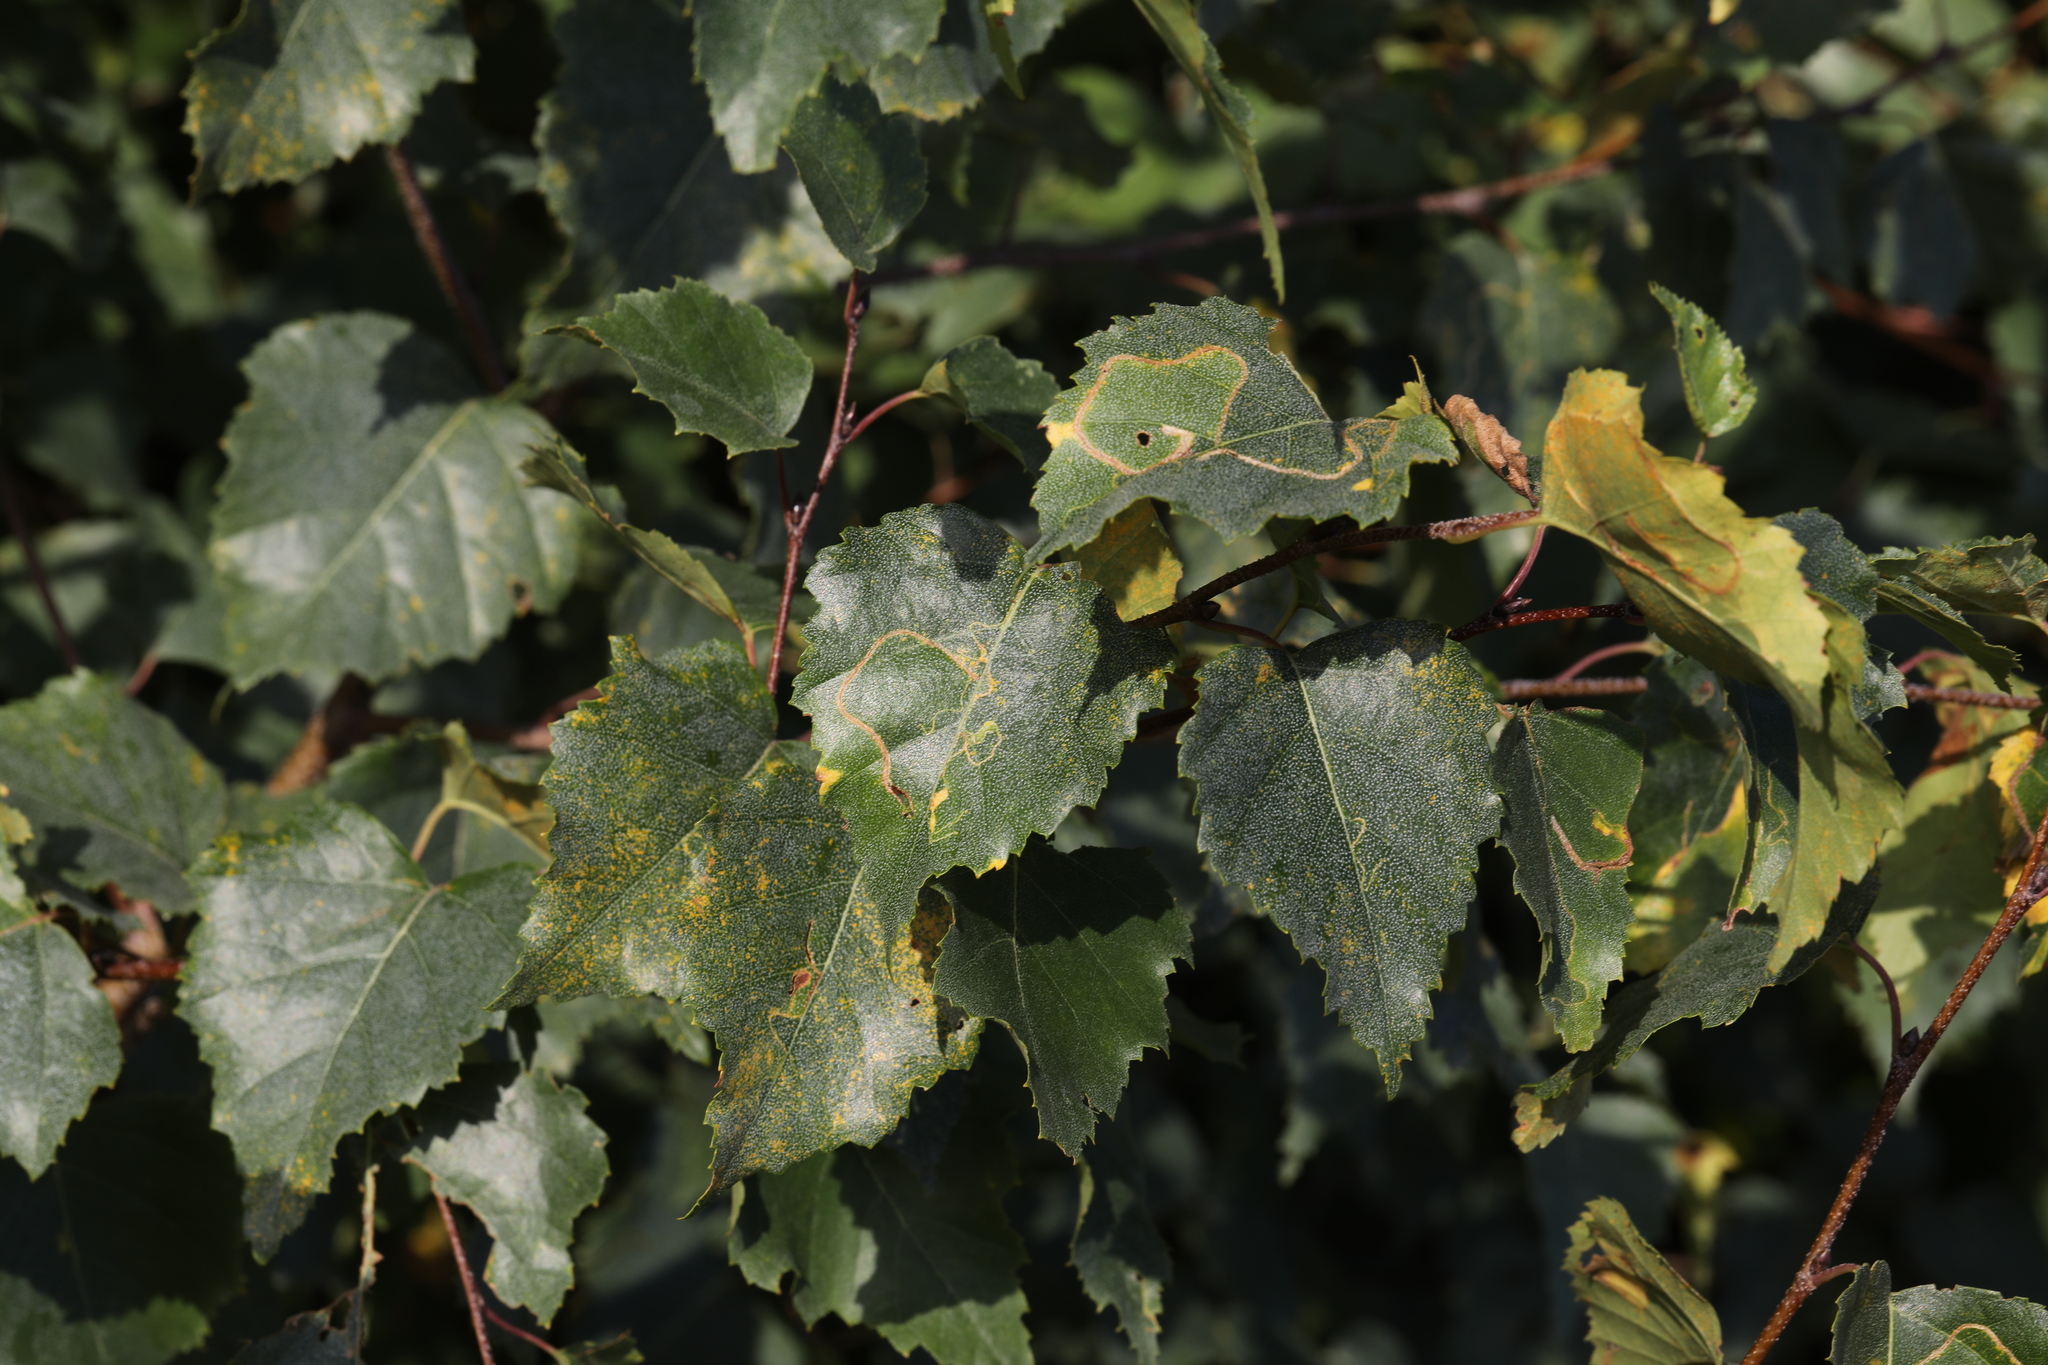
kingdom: Plantae
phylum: Tracheophyta
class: Magnoliopsida
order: Fagales
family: Betulaceae
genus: Betula
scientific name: Betula pendula
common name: Silver birch
